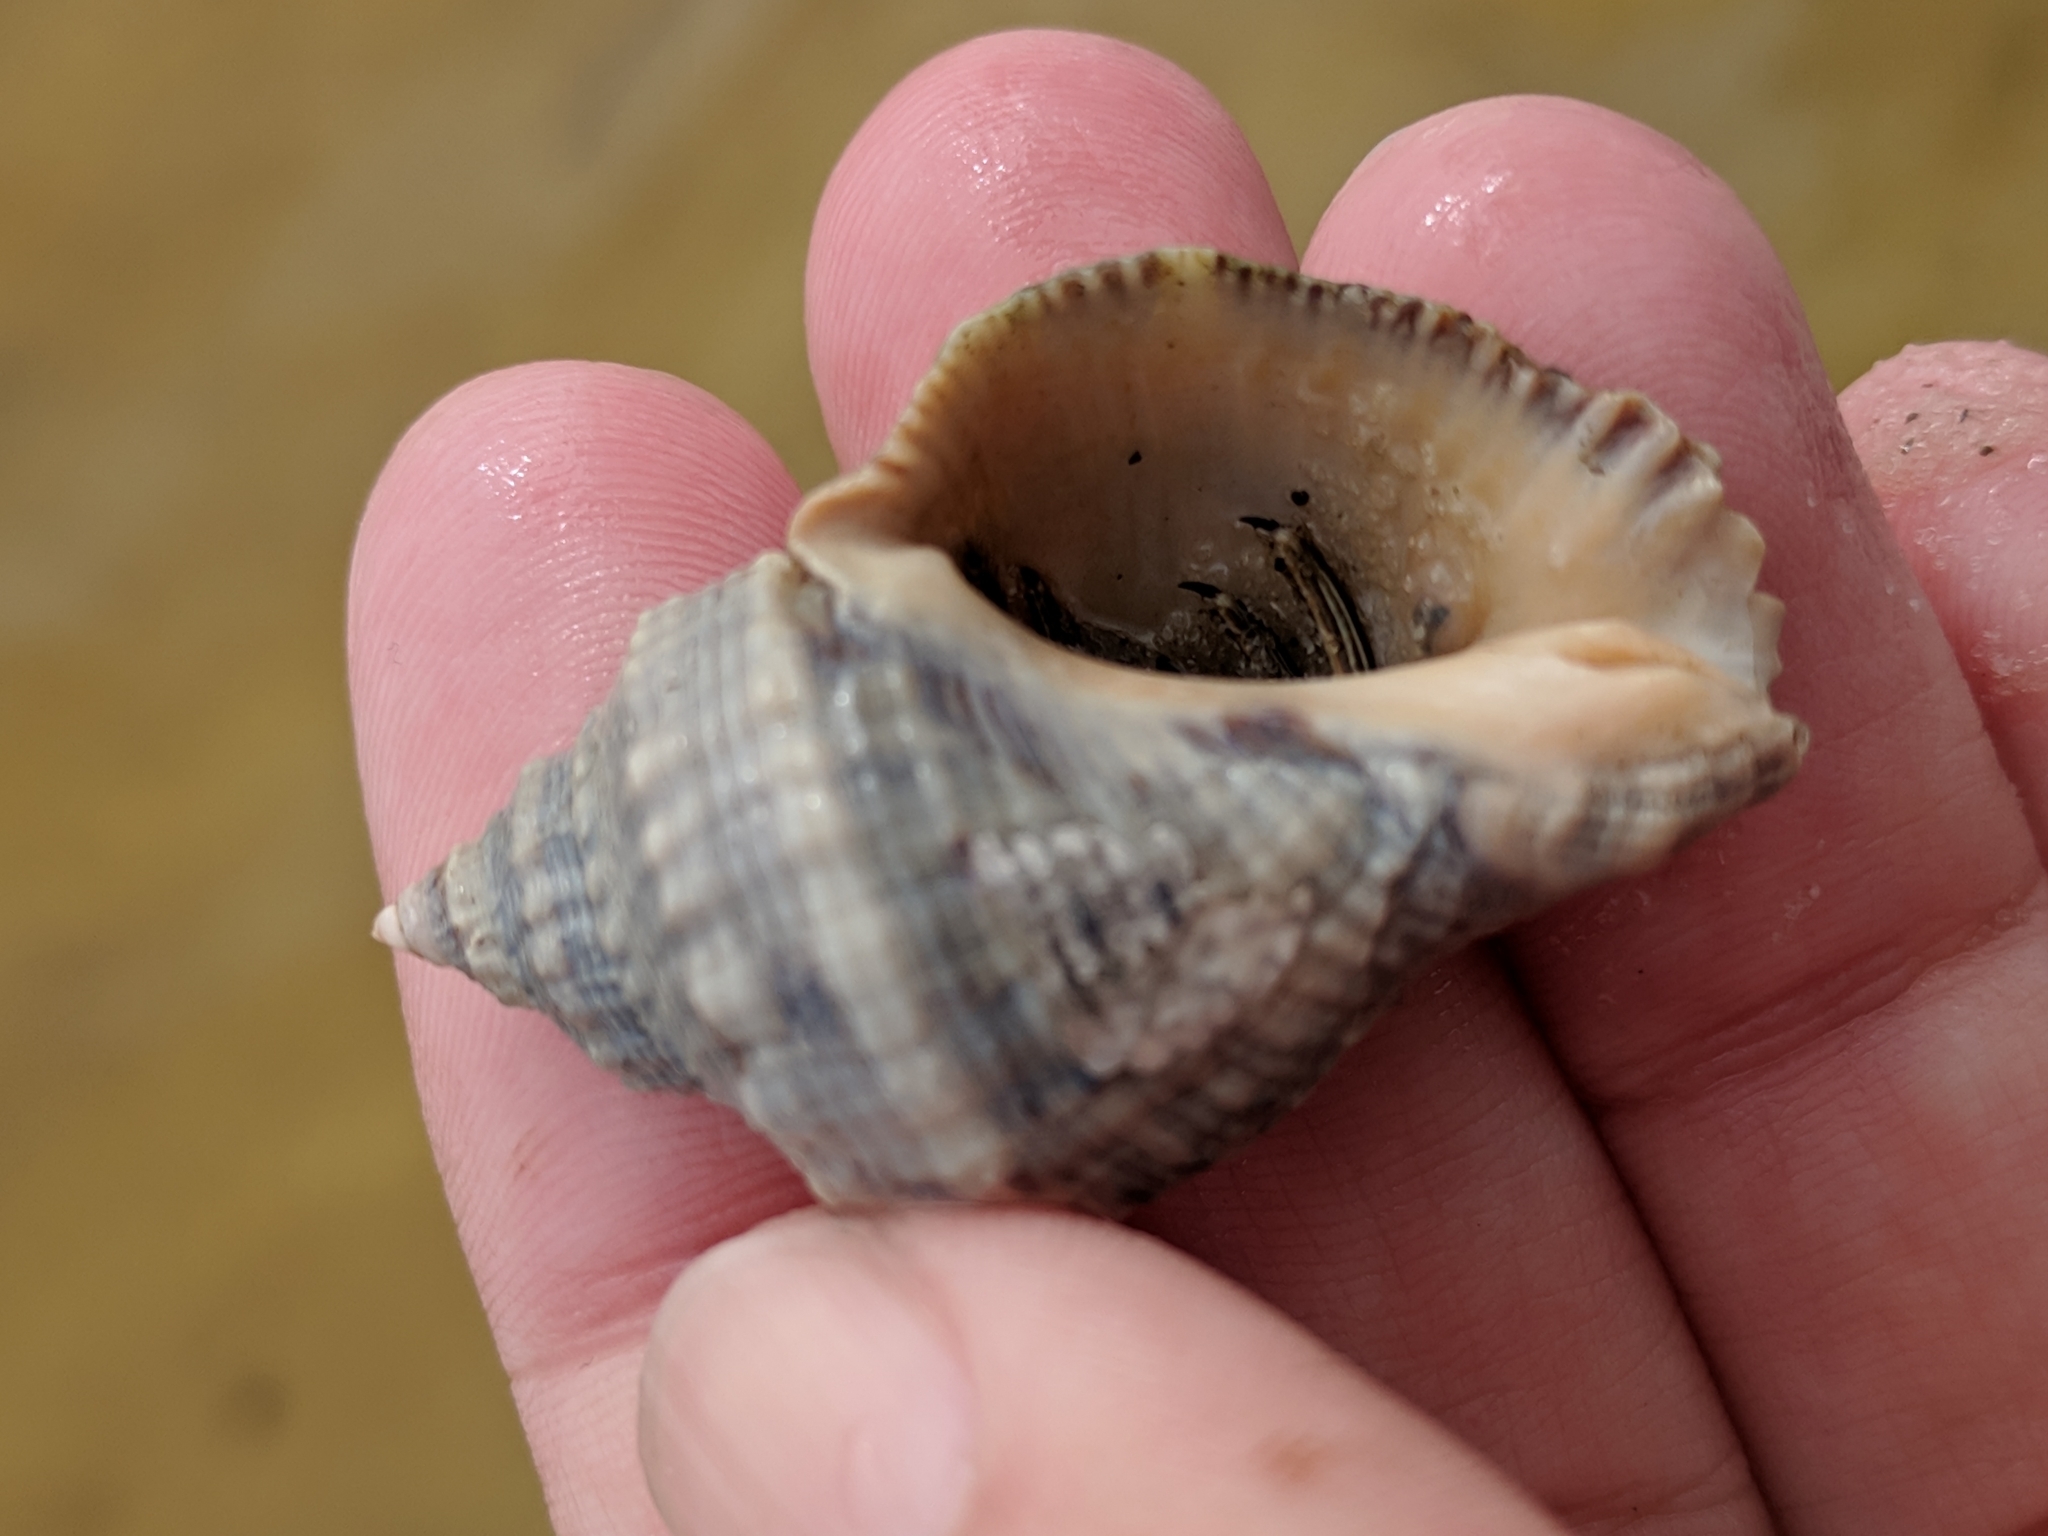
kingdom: Animalia
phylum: Mollusca
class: Gastropoda
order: Neogastropoda
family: Muricidae
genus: Stramonita
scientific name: Stramonita canaliculata
